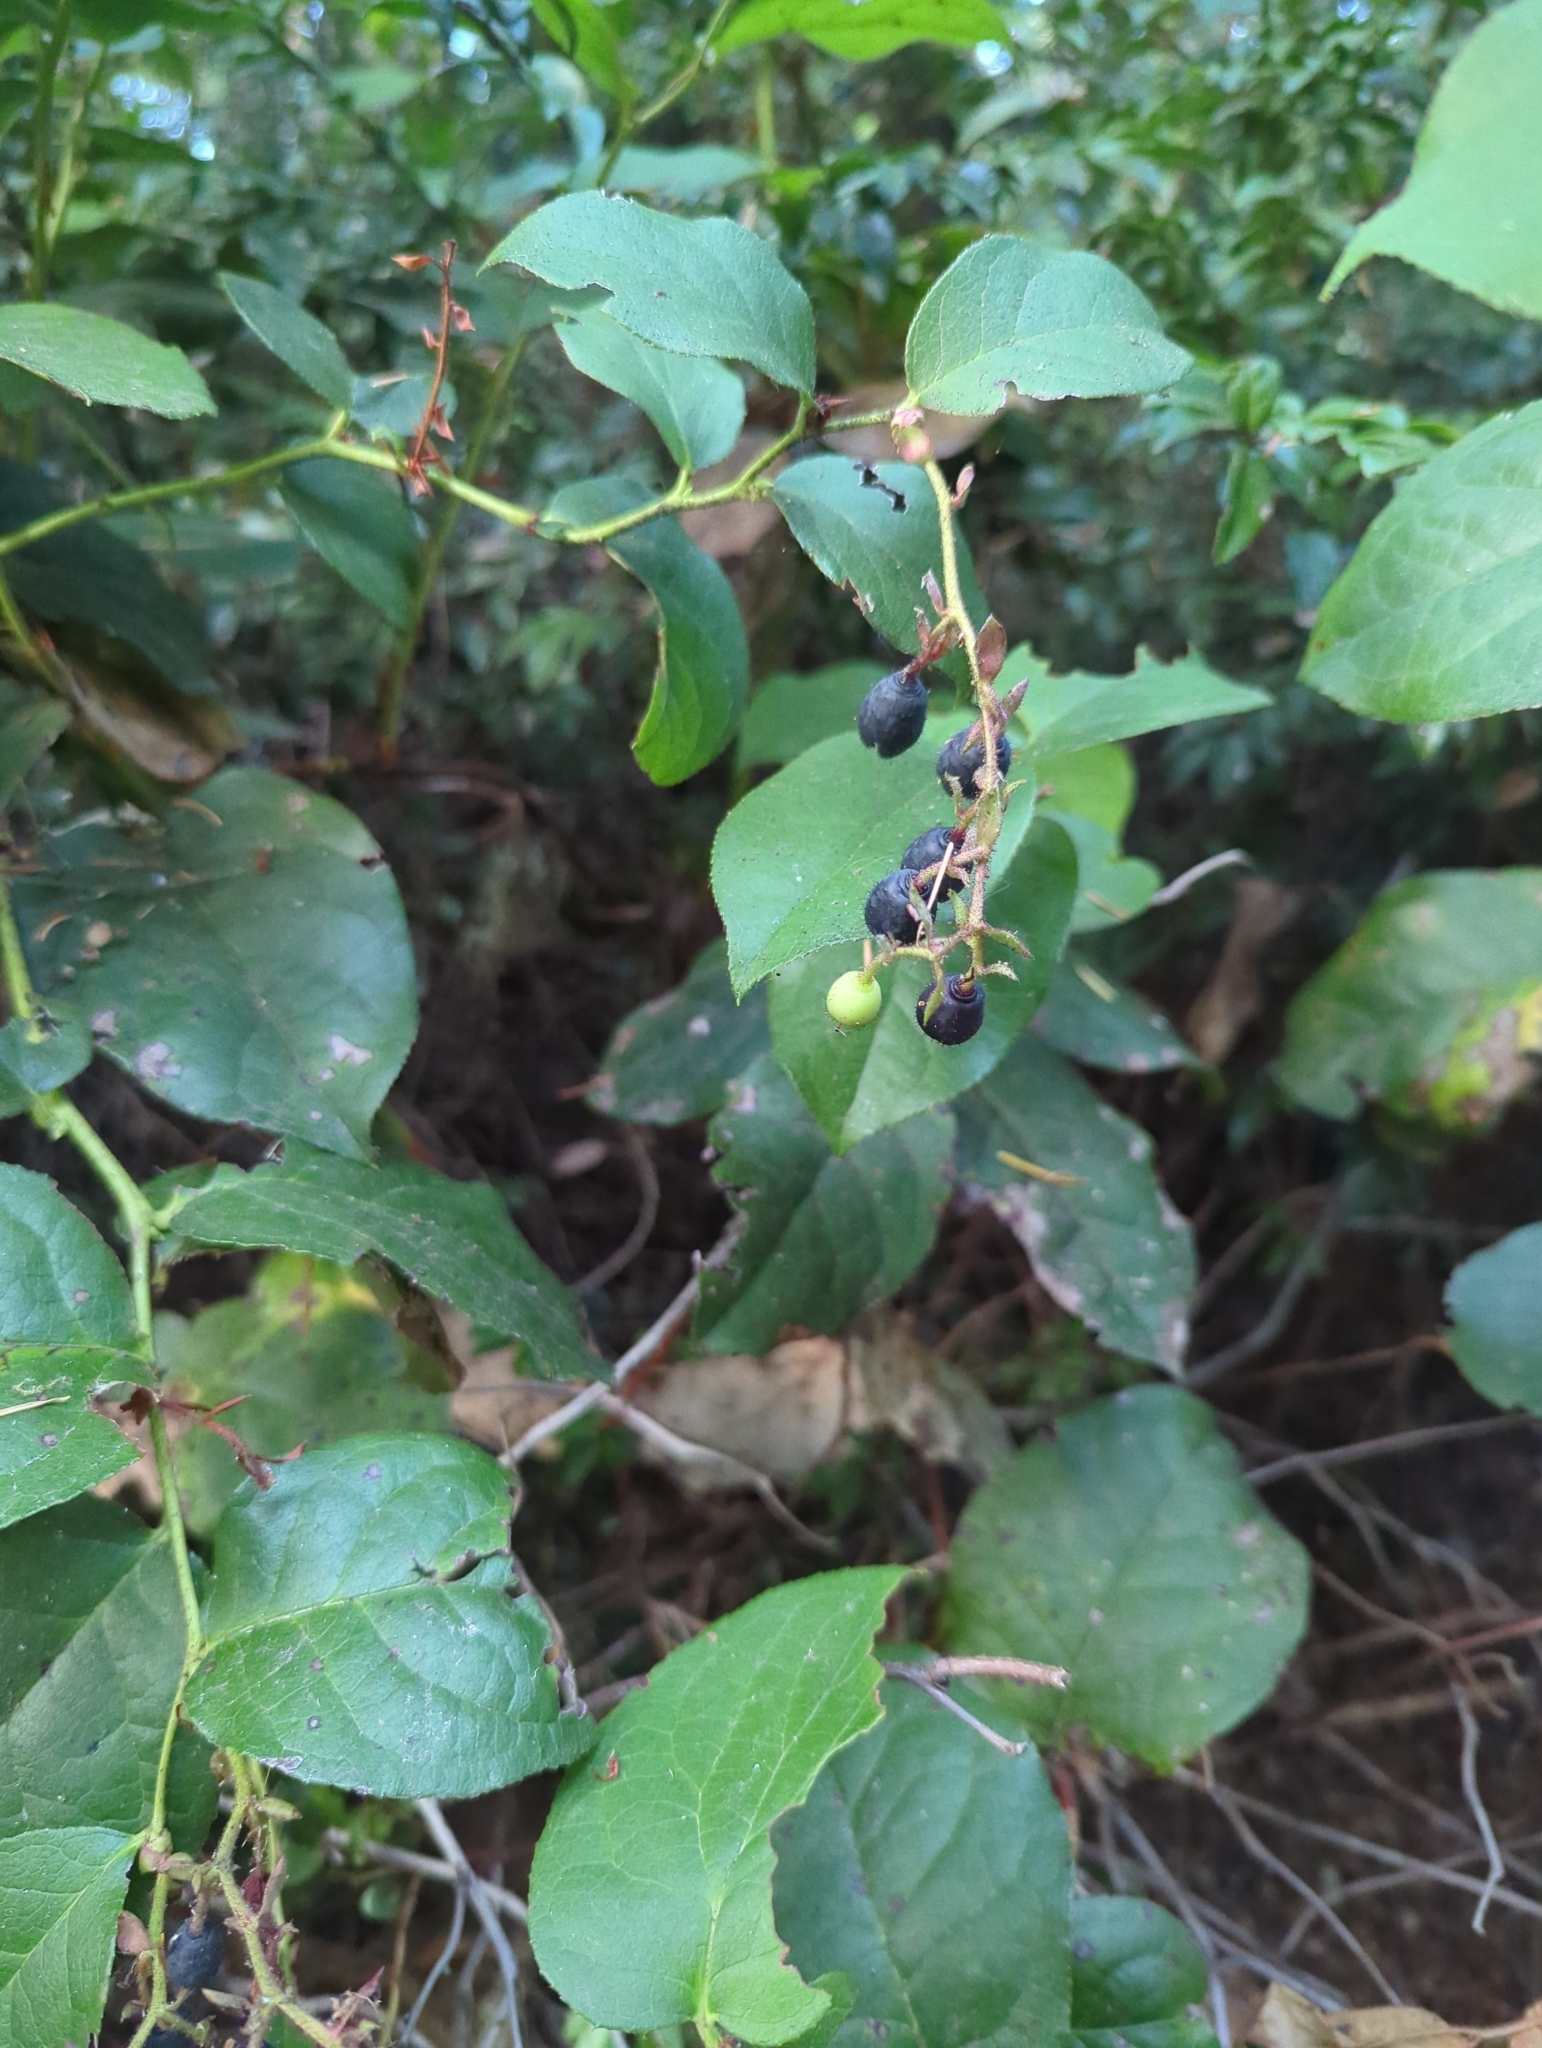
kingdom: Plantae
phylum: Tracheophyta
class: Magnoliopsida
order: Ericales
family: Ericaceae
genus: Gaultheria
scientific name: Gaultheria shallon
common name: Shallon
